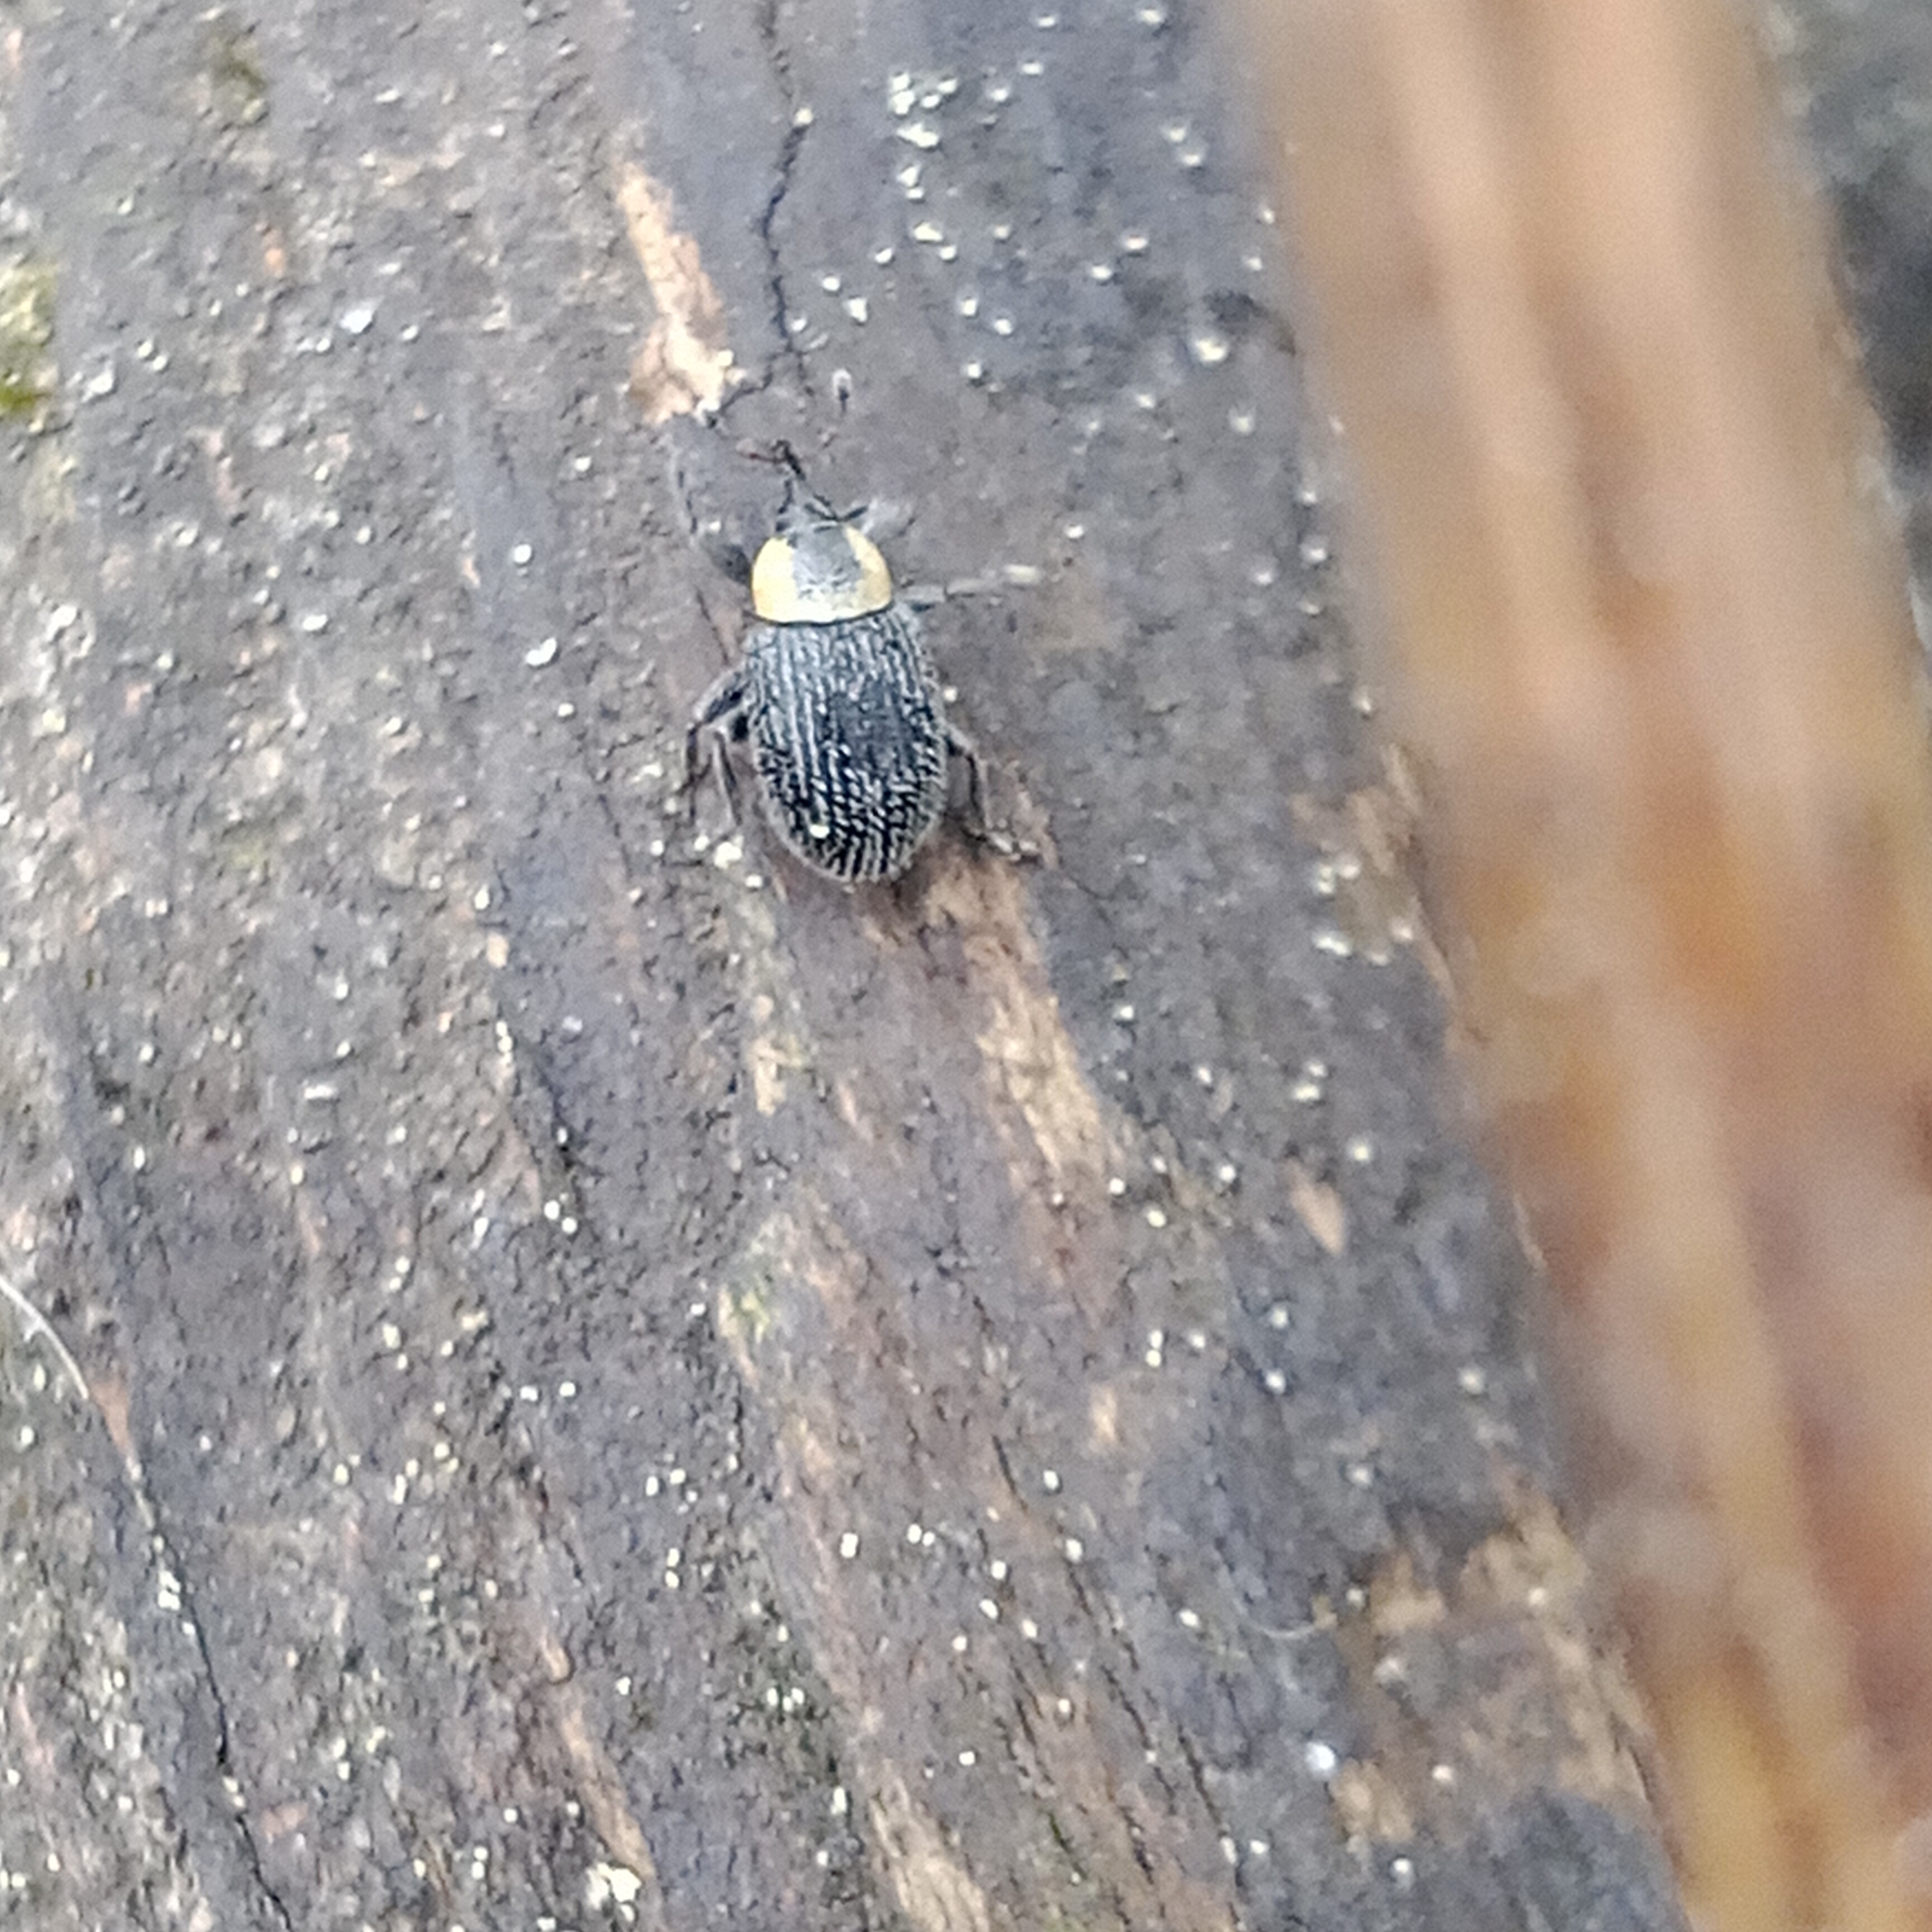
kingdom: Animalia
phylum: Arthropoda
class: Insecta
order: Coleoptera
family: Curculionidae
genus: Gymnetron
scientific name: Gymnetron terminassianae
